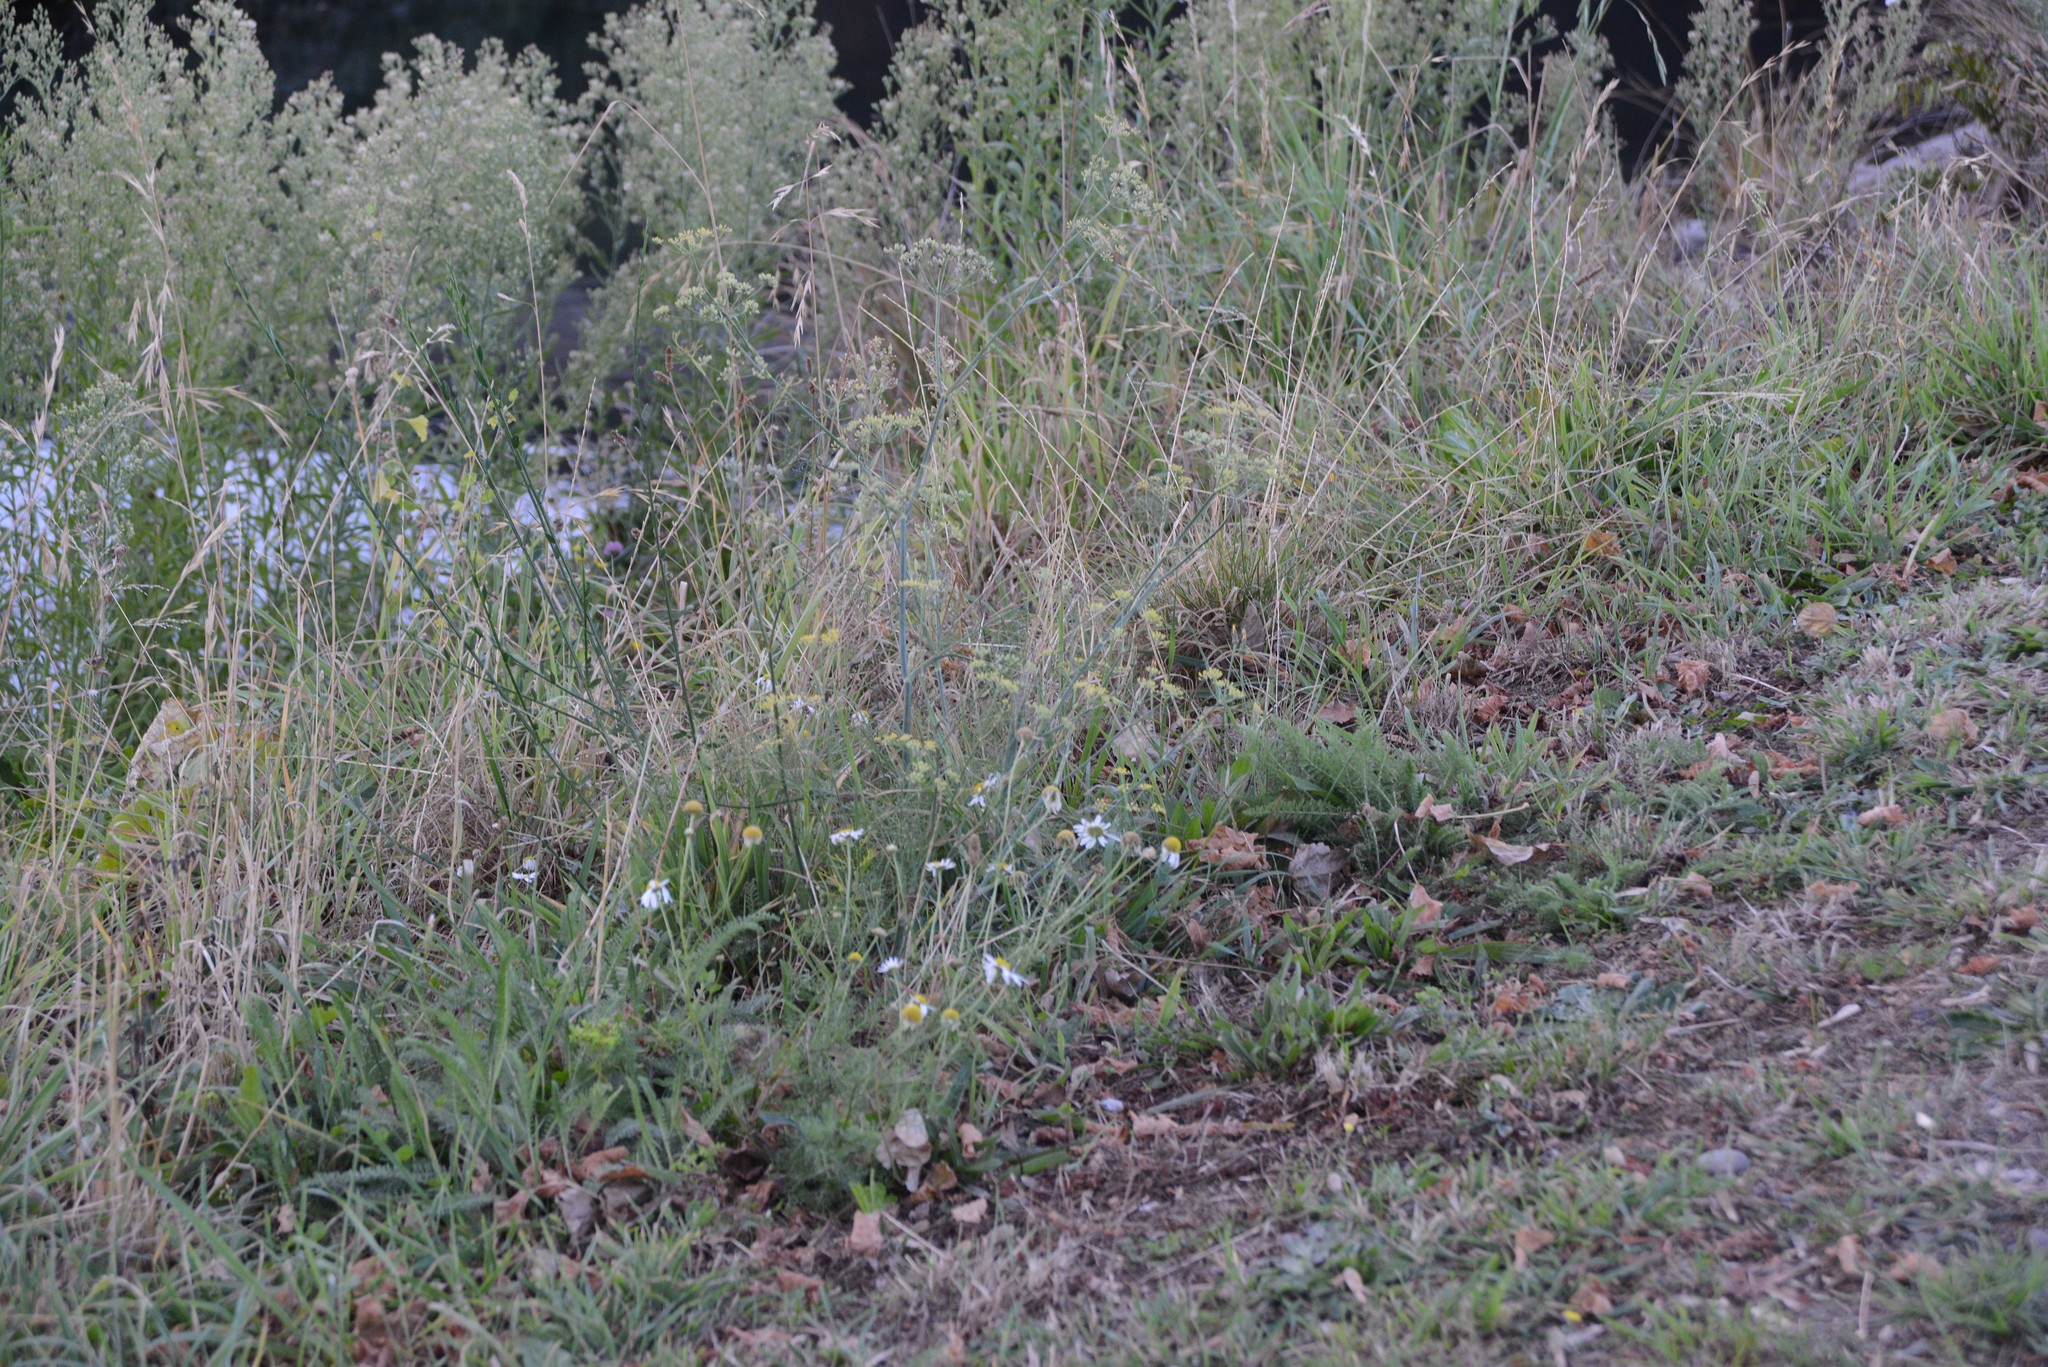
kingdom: Plantae
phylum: Tracheophyta
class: Magnoliopsida
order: Apiales
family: Apiaceae
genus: Foeniculum
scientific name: Foeniculum vulgare
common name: Fennel
